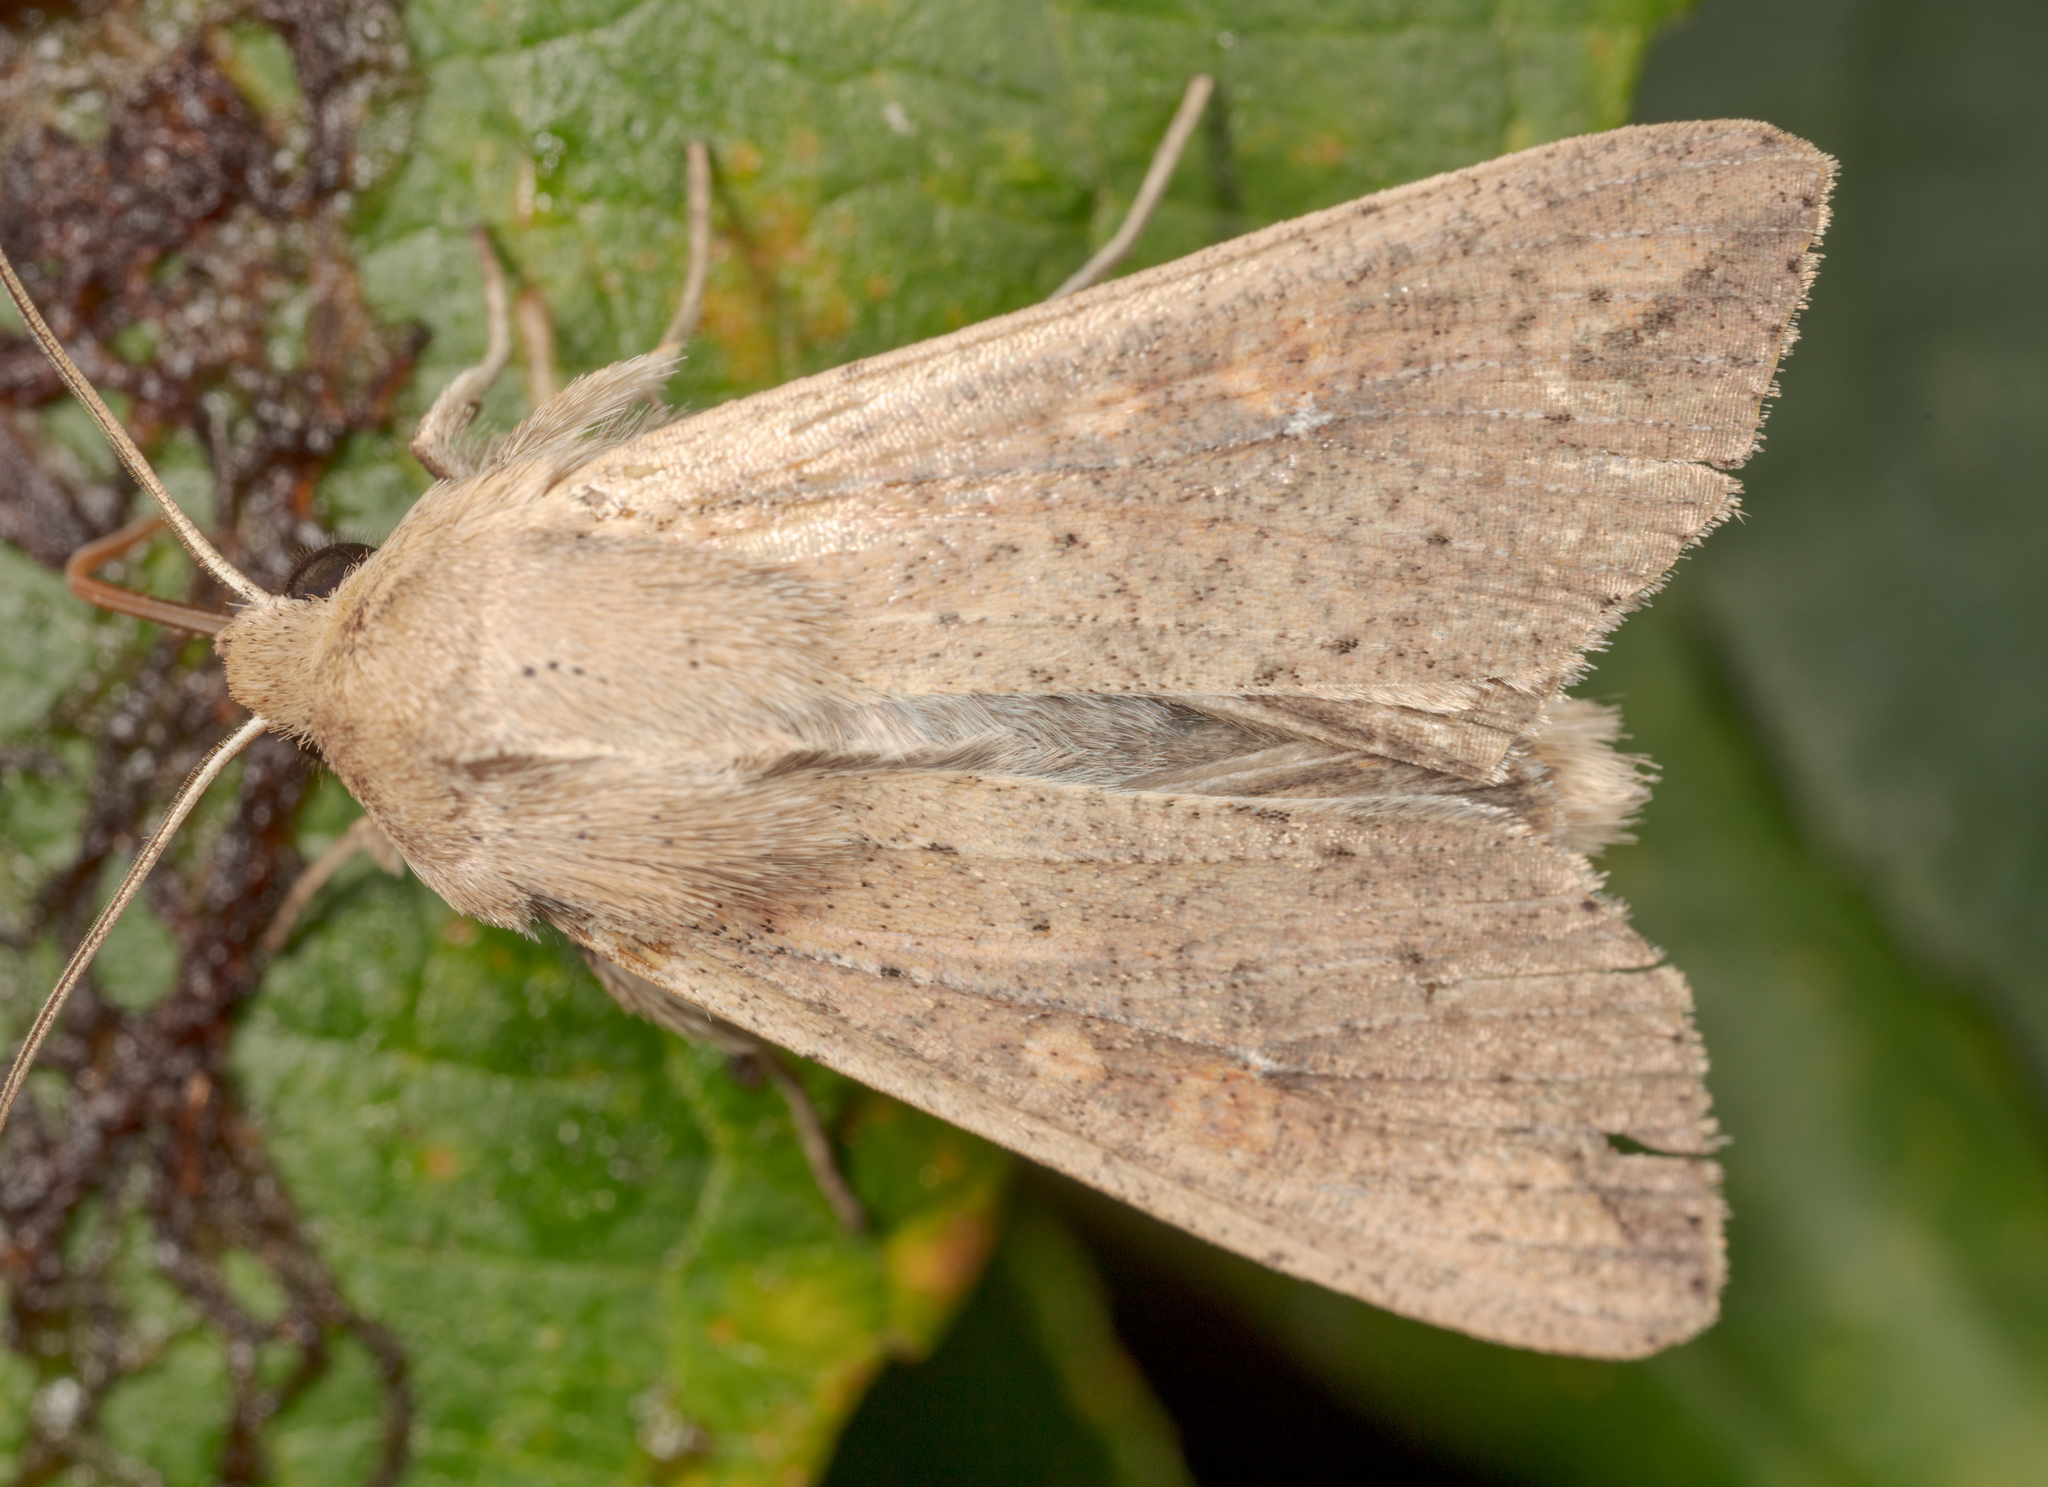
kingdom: Animalia
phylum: Arthropoda
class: Insecta
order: Lepidoptera
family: Noctuidae
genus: Mythimna
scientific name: Mythimna unipuncta
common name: White-speck
